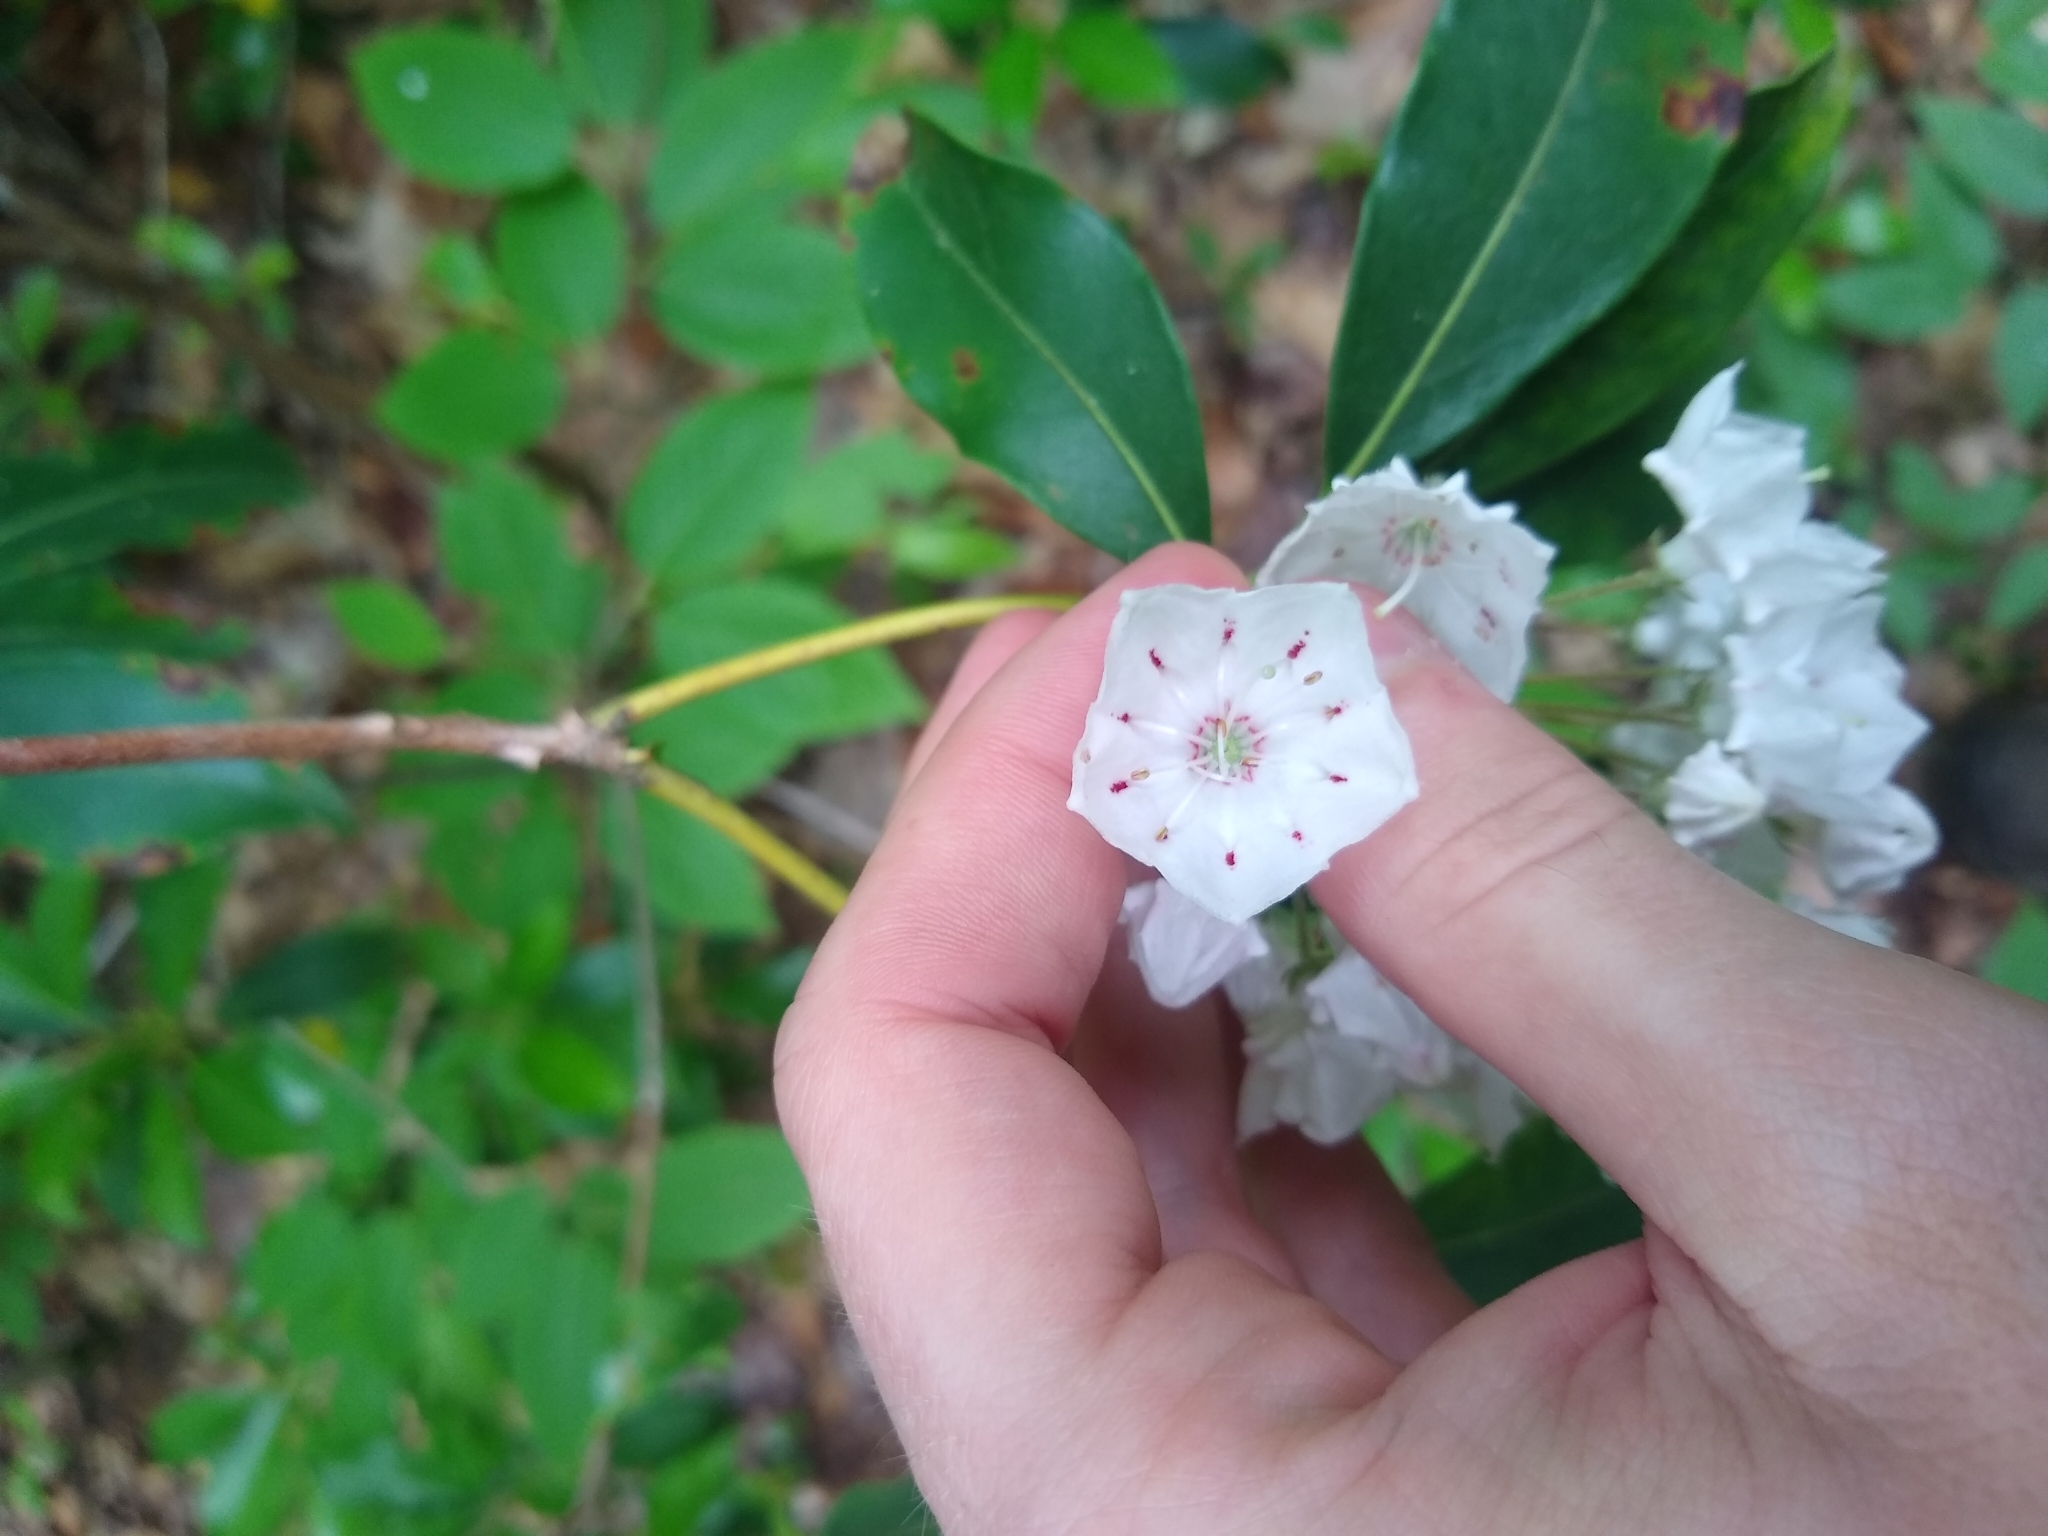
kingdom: Plantae
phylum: Tracheophyta
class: Magnoliopsida
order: Ericales
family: Ericaceae
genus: Kalmia
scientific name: Kalmia latifolia
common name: Mountain-laurel
